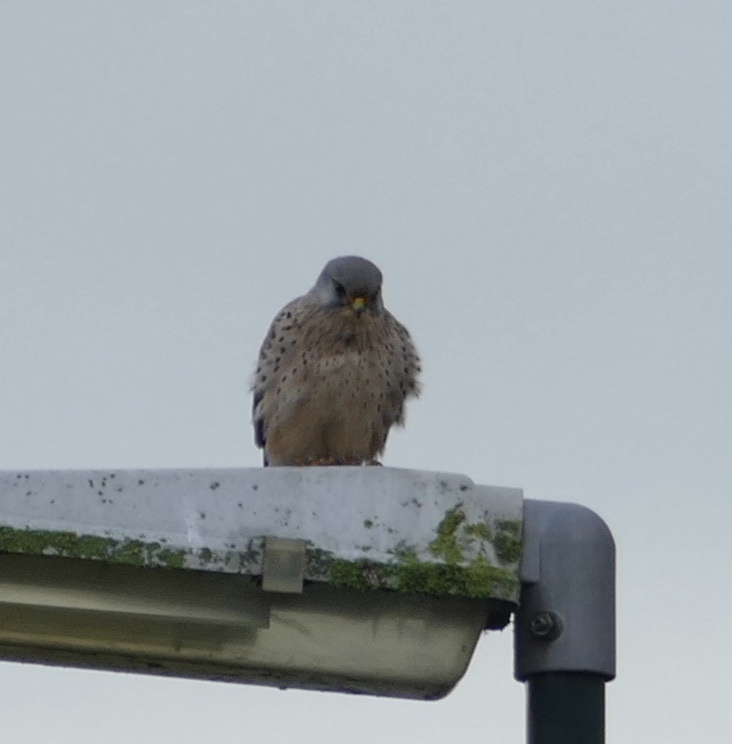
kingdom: Animalia
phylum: Chordata
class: Aves
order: Falconiformes
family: Falconidae
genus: Falco
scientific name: Falco tinnunculus
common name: Common kestrel
